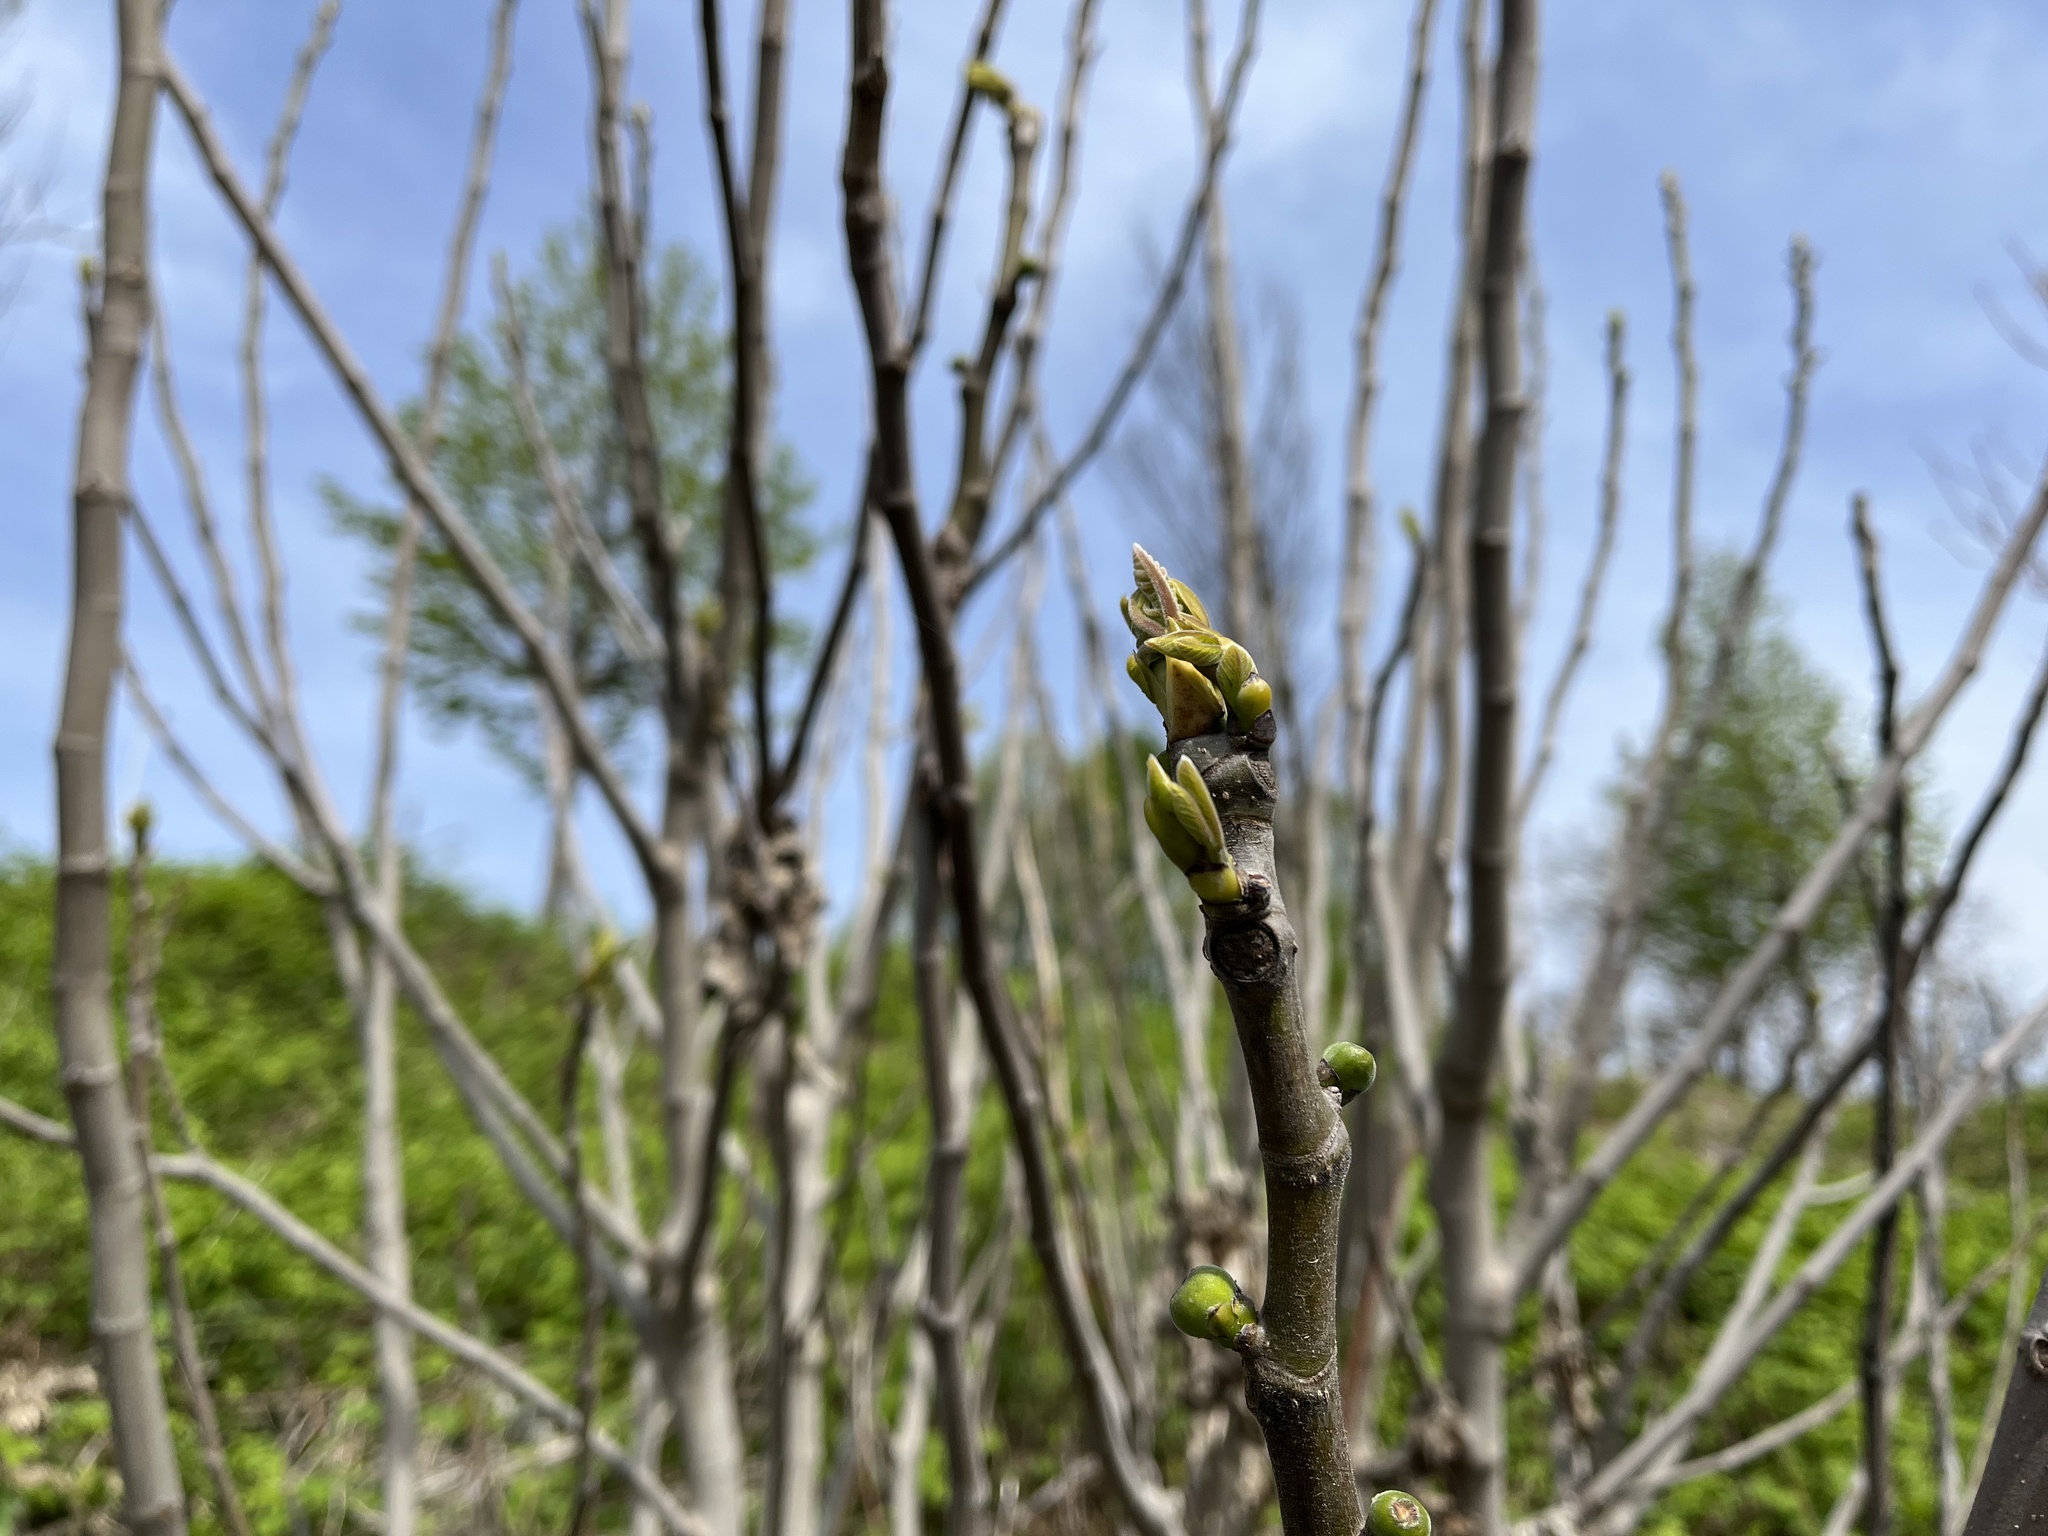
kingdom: Plantae
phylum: Tracheophyta
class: Magnoliopsida
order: Rosales
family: Moraceae
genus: Ficus
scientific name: Ficus carica
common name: Fig
